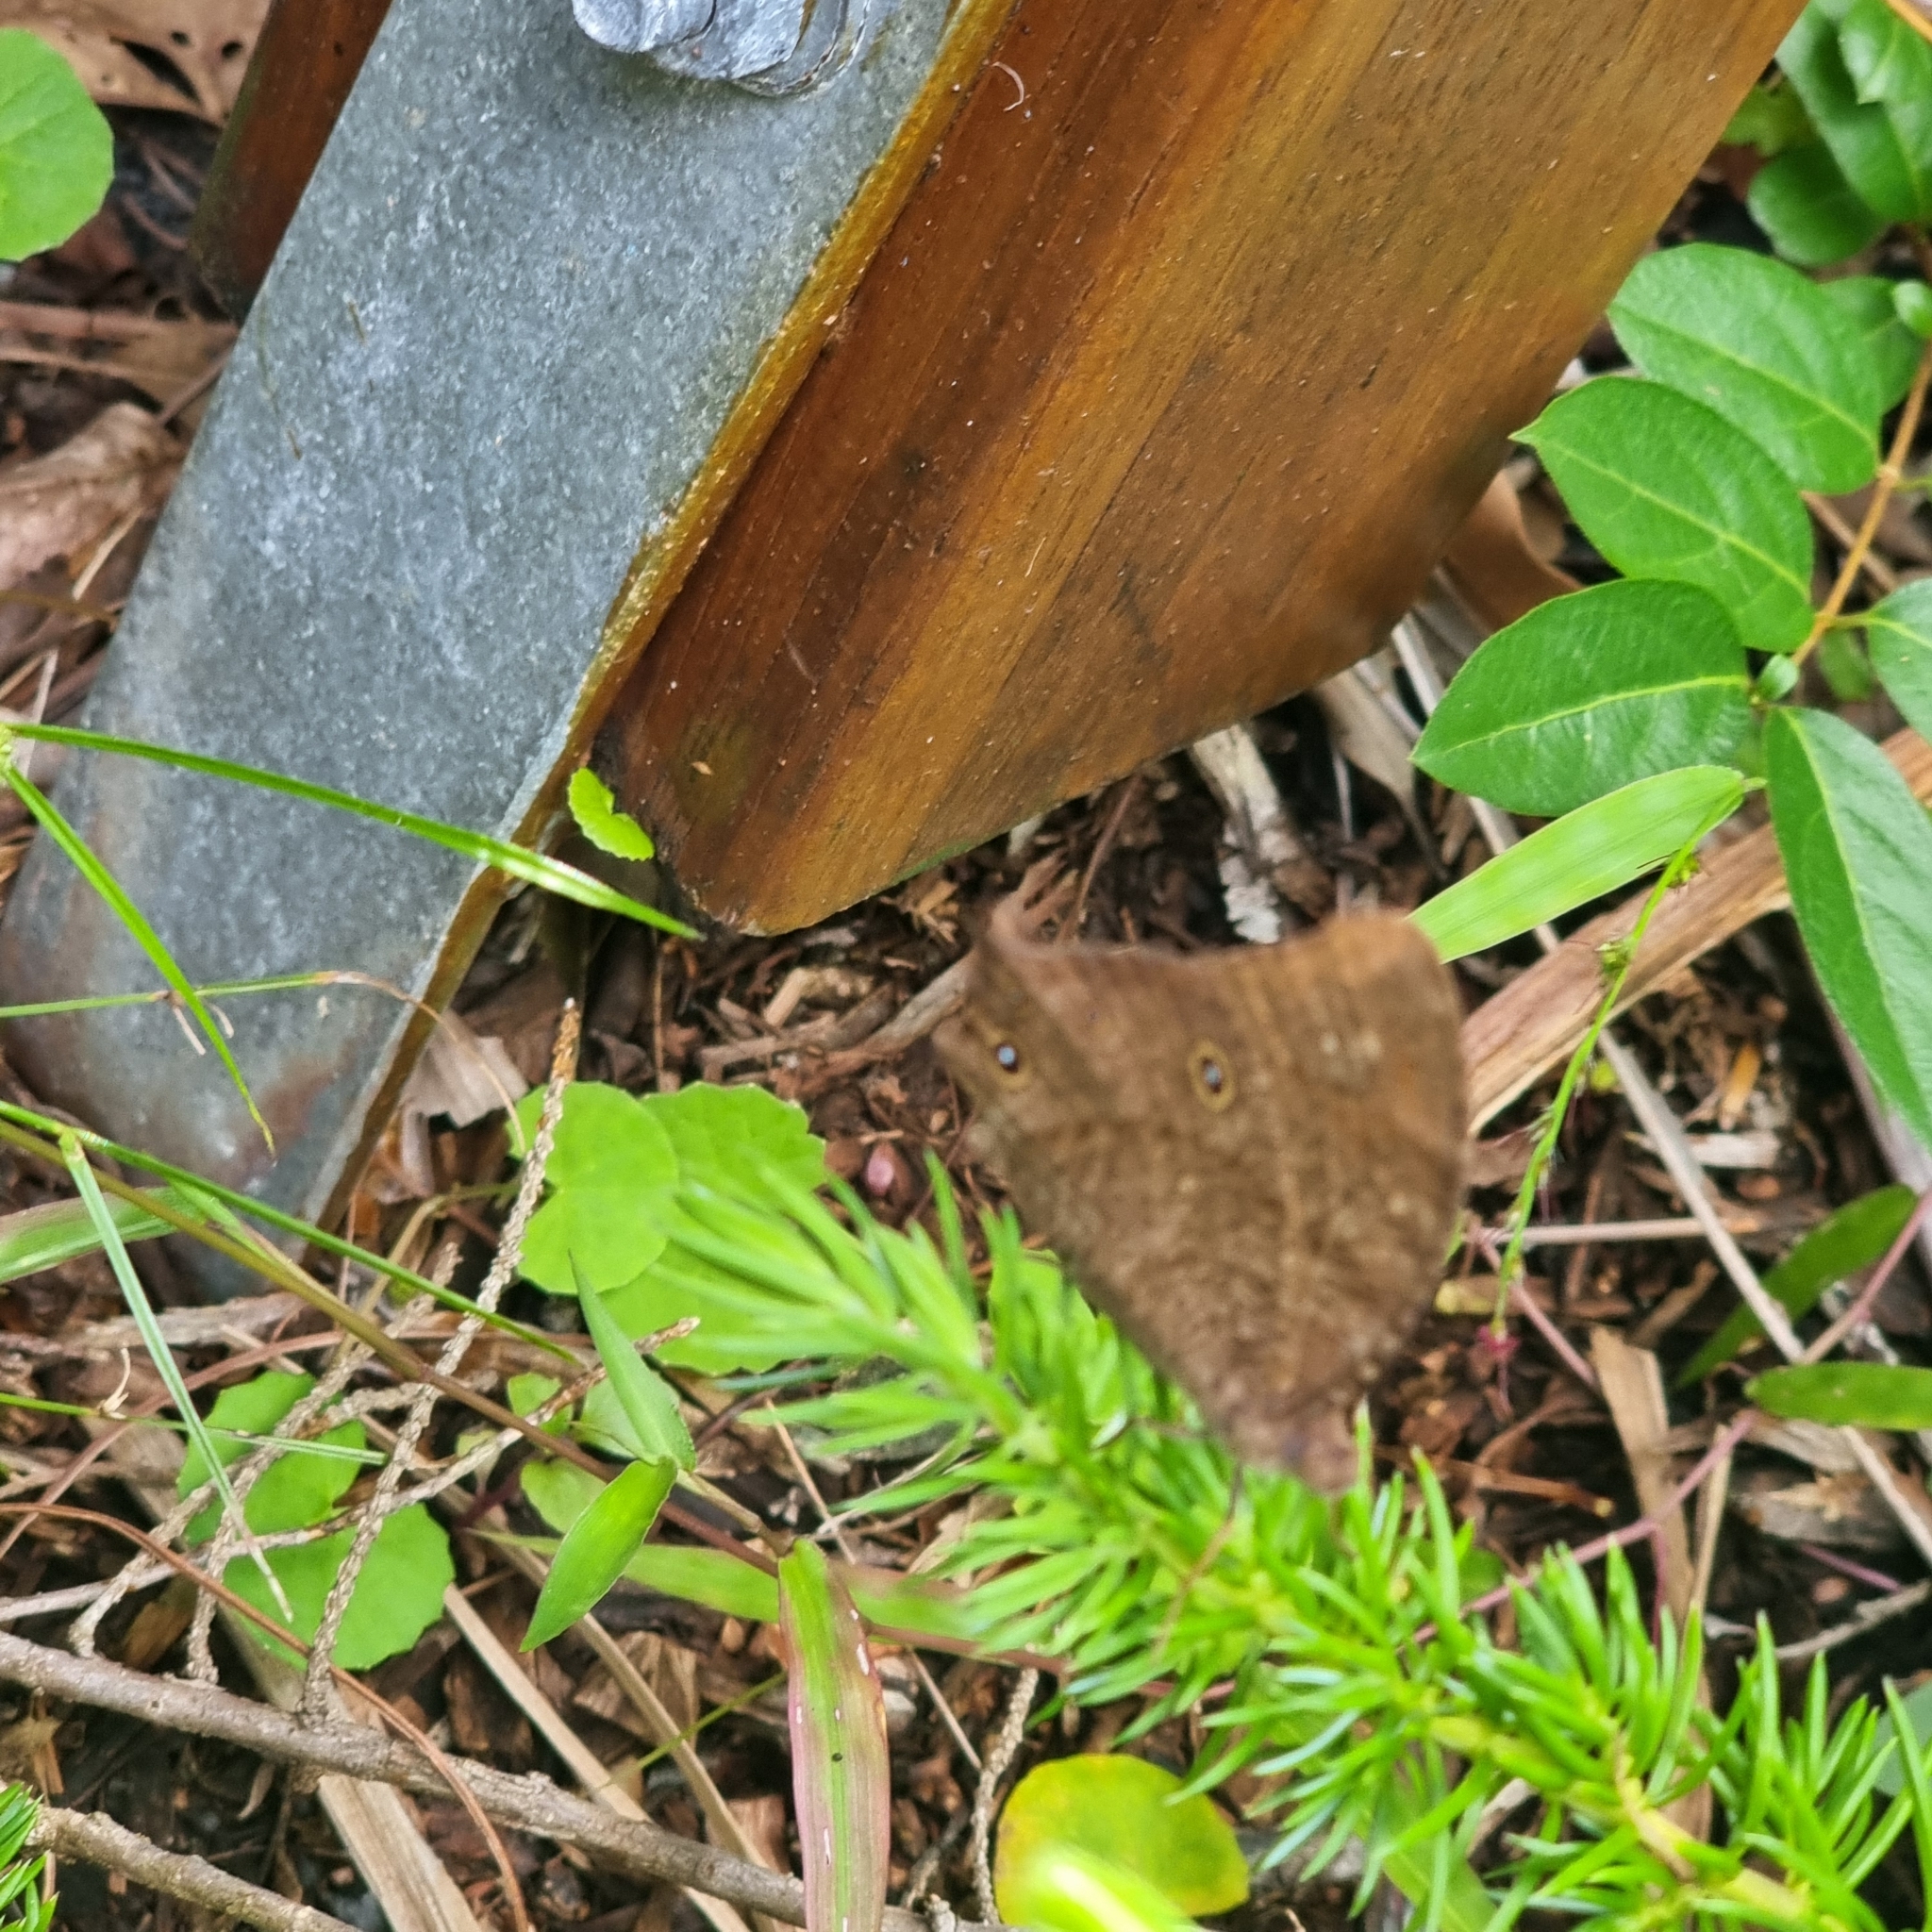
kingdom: Animalia
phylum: Arthropoda
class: Insecta
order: Lepidoptera
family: Nymphalidae
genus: Melanitis
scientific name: Melanitis leda
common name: Twilight brown
